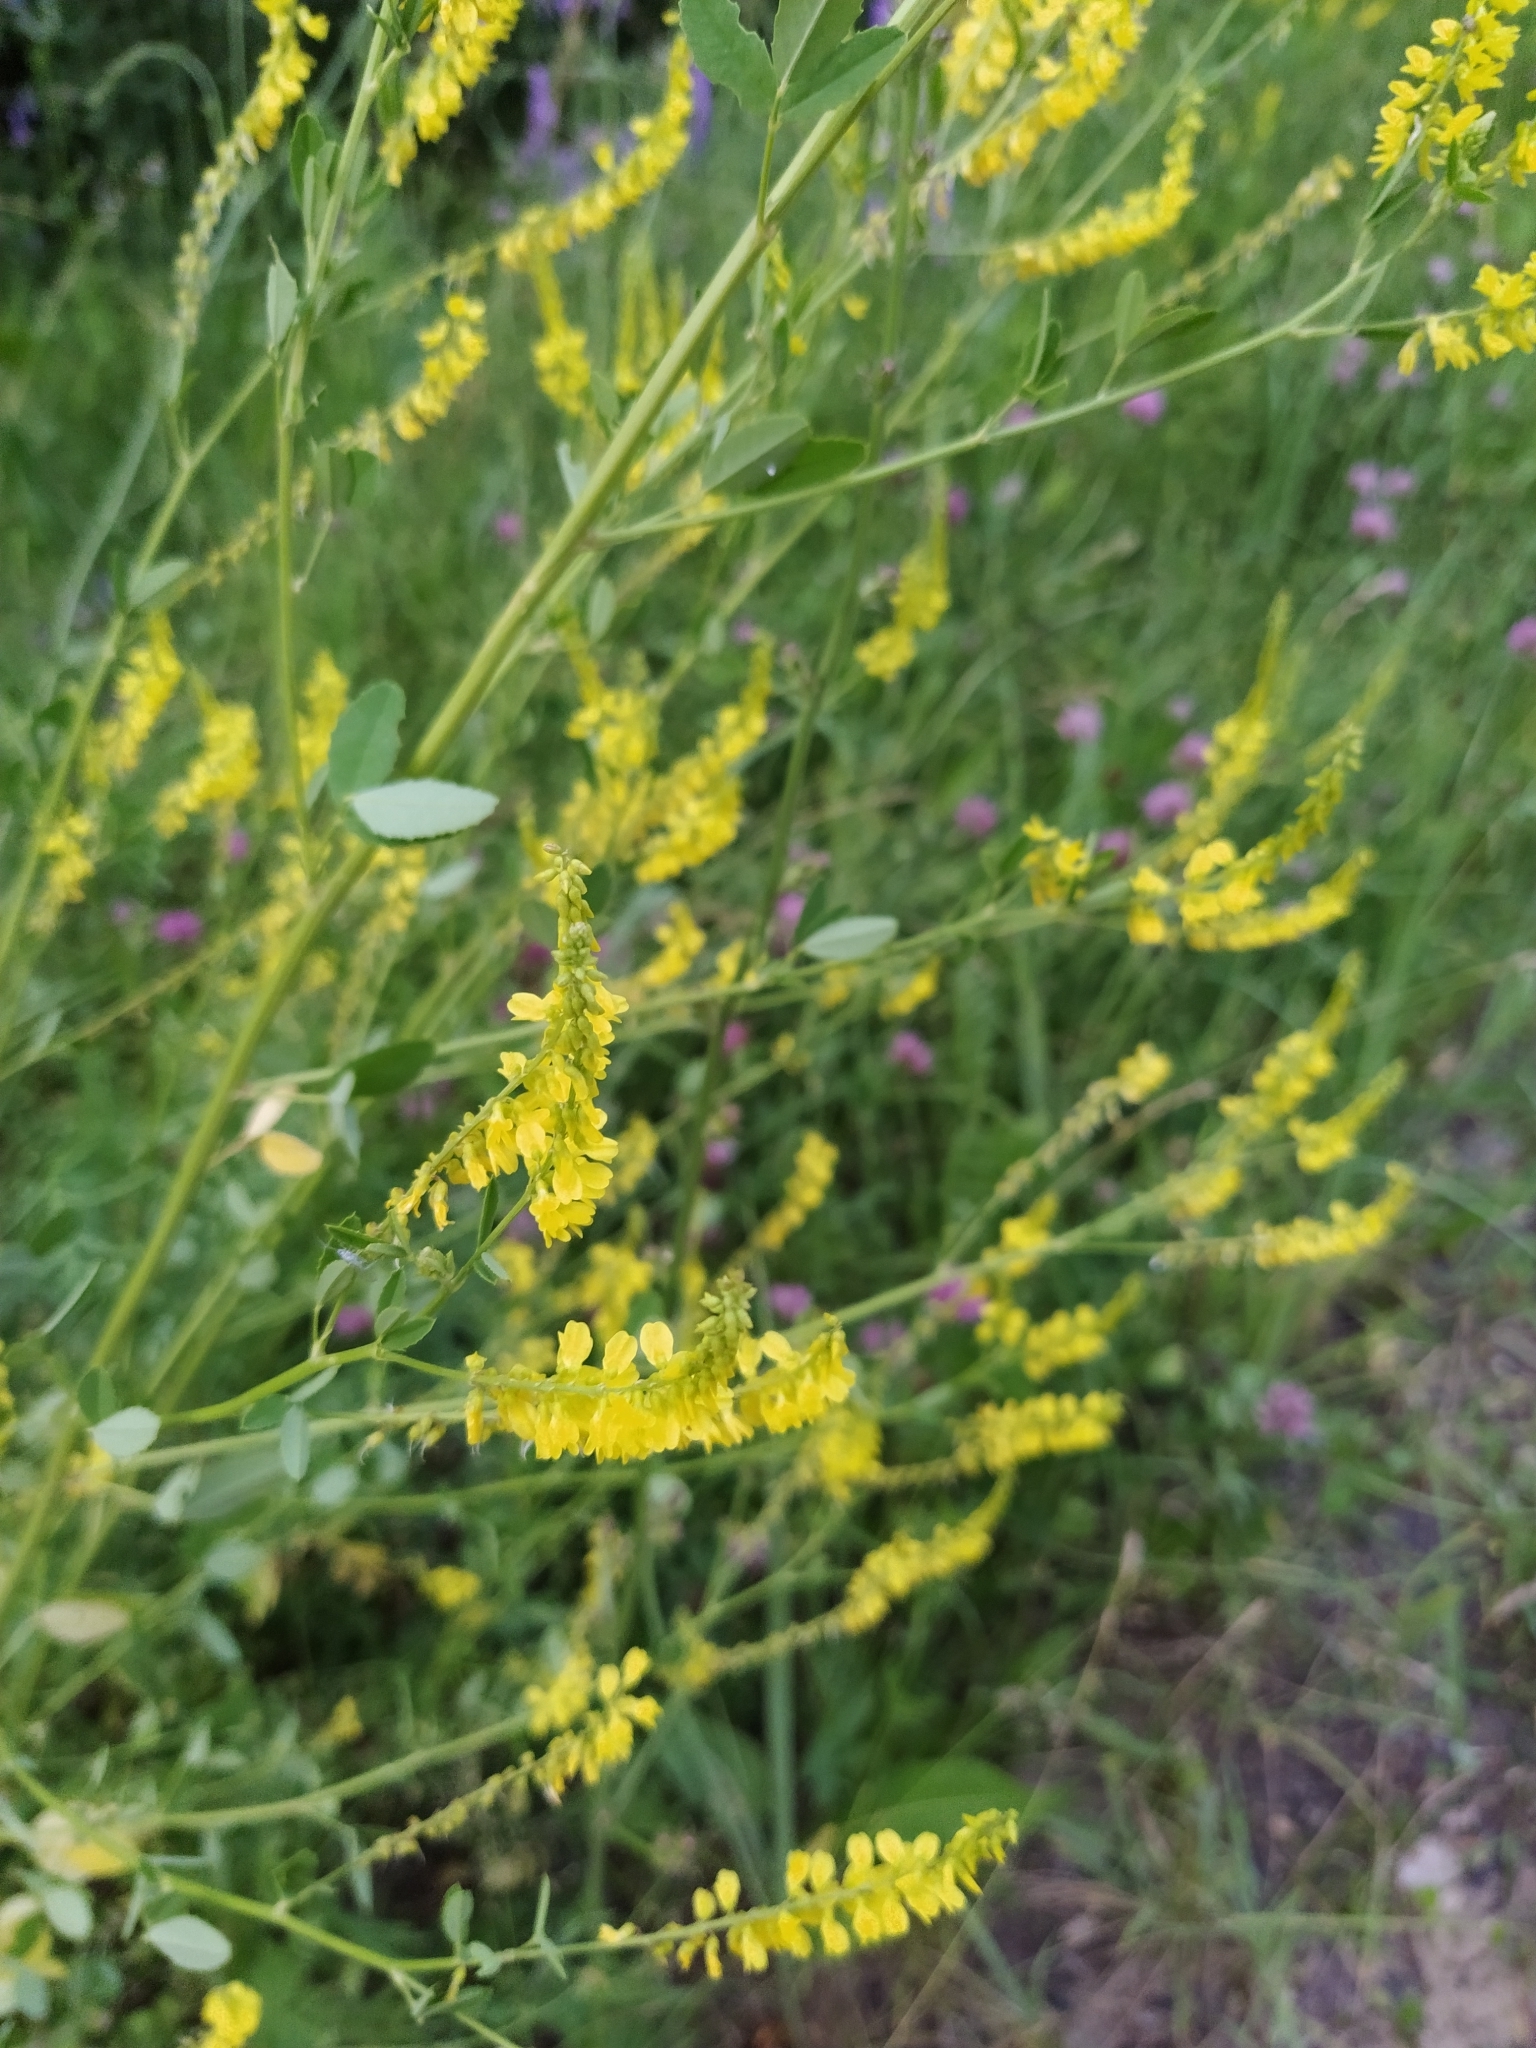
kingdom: Plantae
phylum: Tracheophyta
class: Magnoliopsida
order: Fabales
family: Fabaceae
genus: Melilotus
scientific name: Melilotus officinalis
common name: Sweetclover
